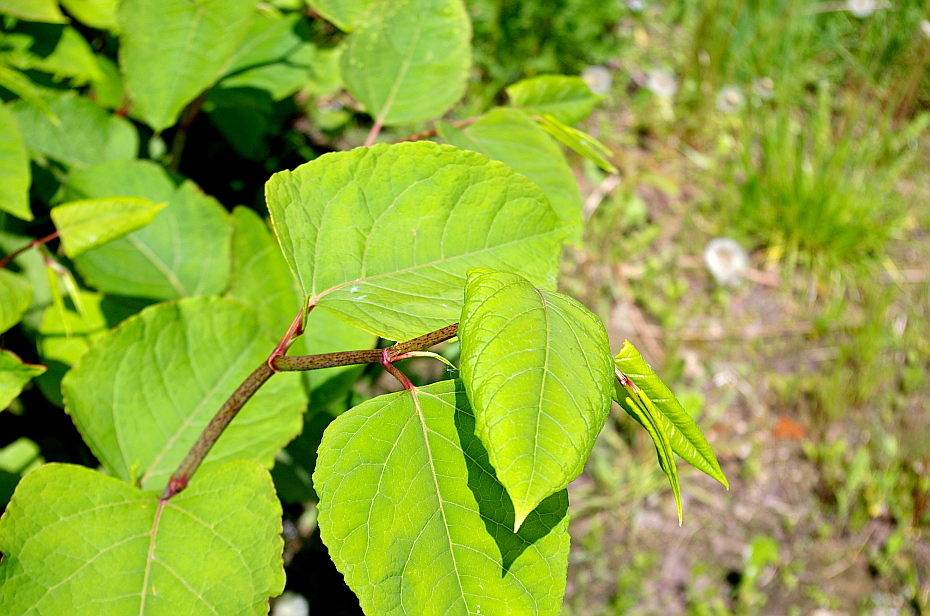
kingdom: Plantae
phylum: Tracheophyta
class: Magnoliopsida
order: Caryophyllales
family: Polygonaceae
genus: Reynoutria
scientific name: Reynoutria japonica
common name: Japanese knotweed
